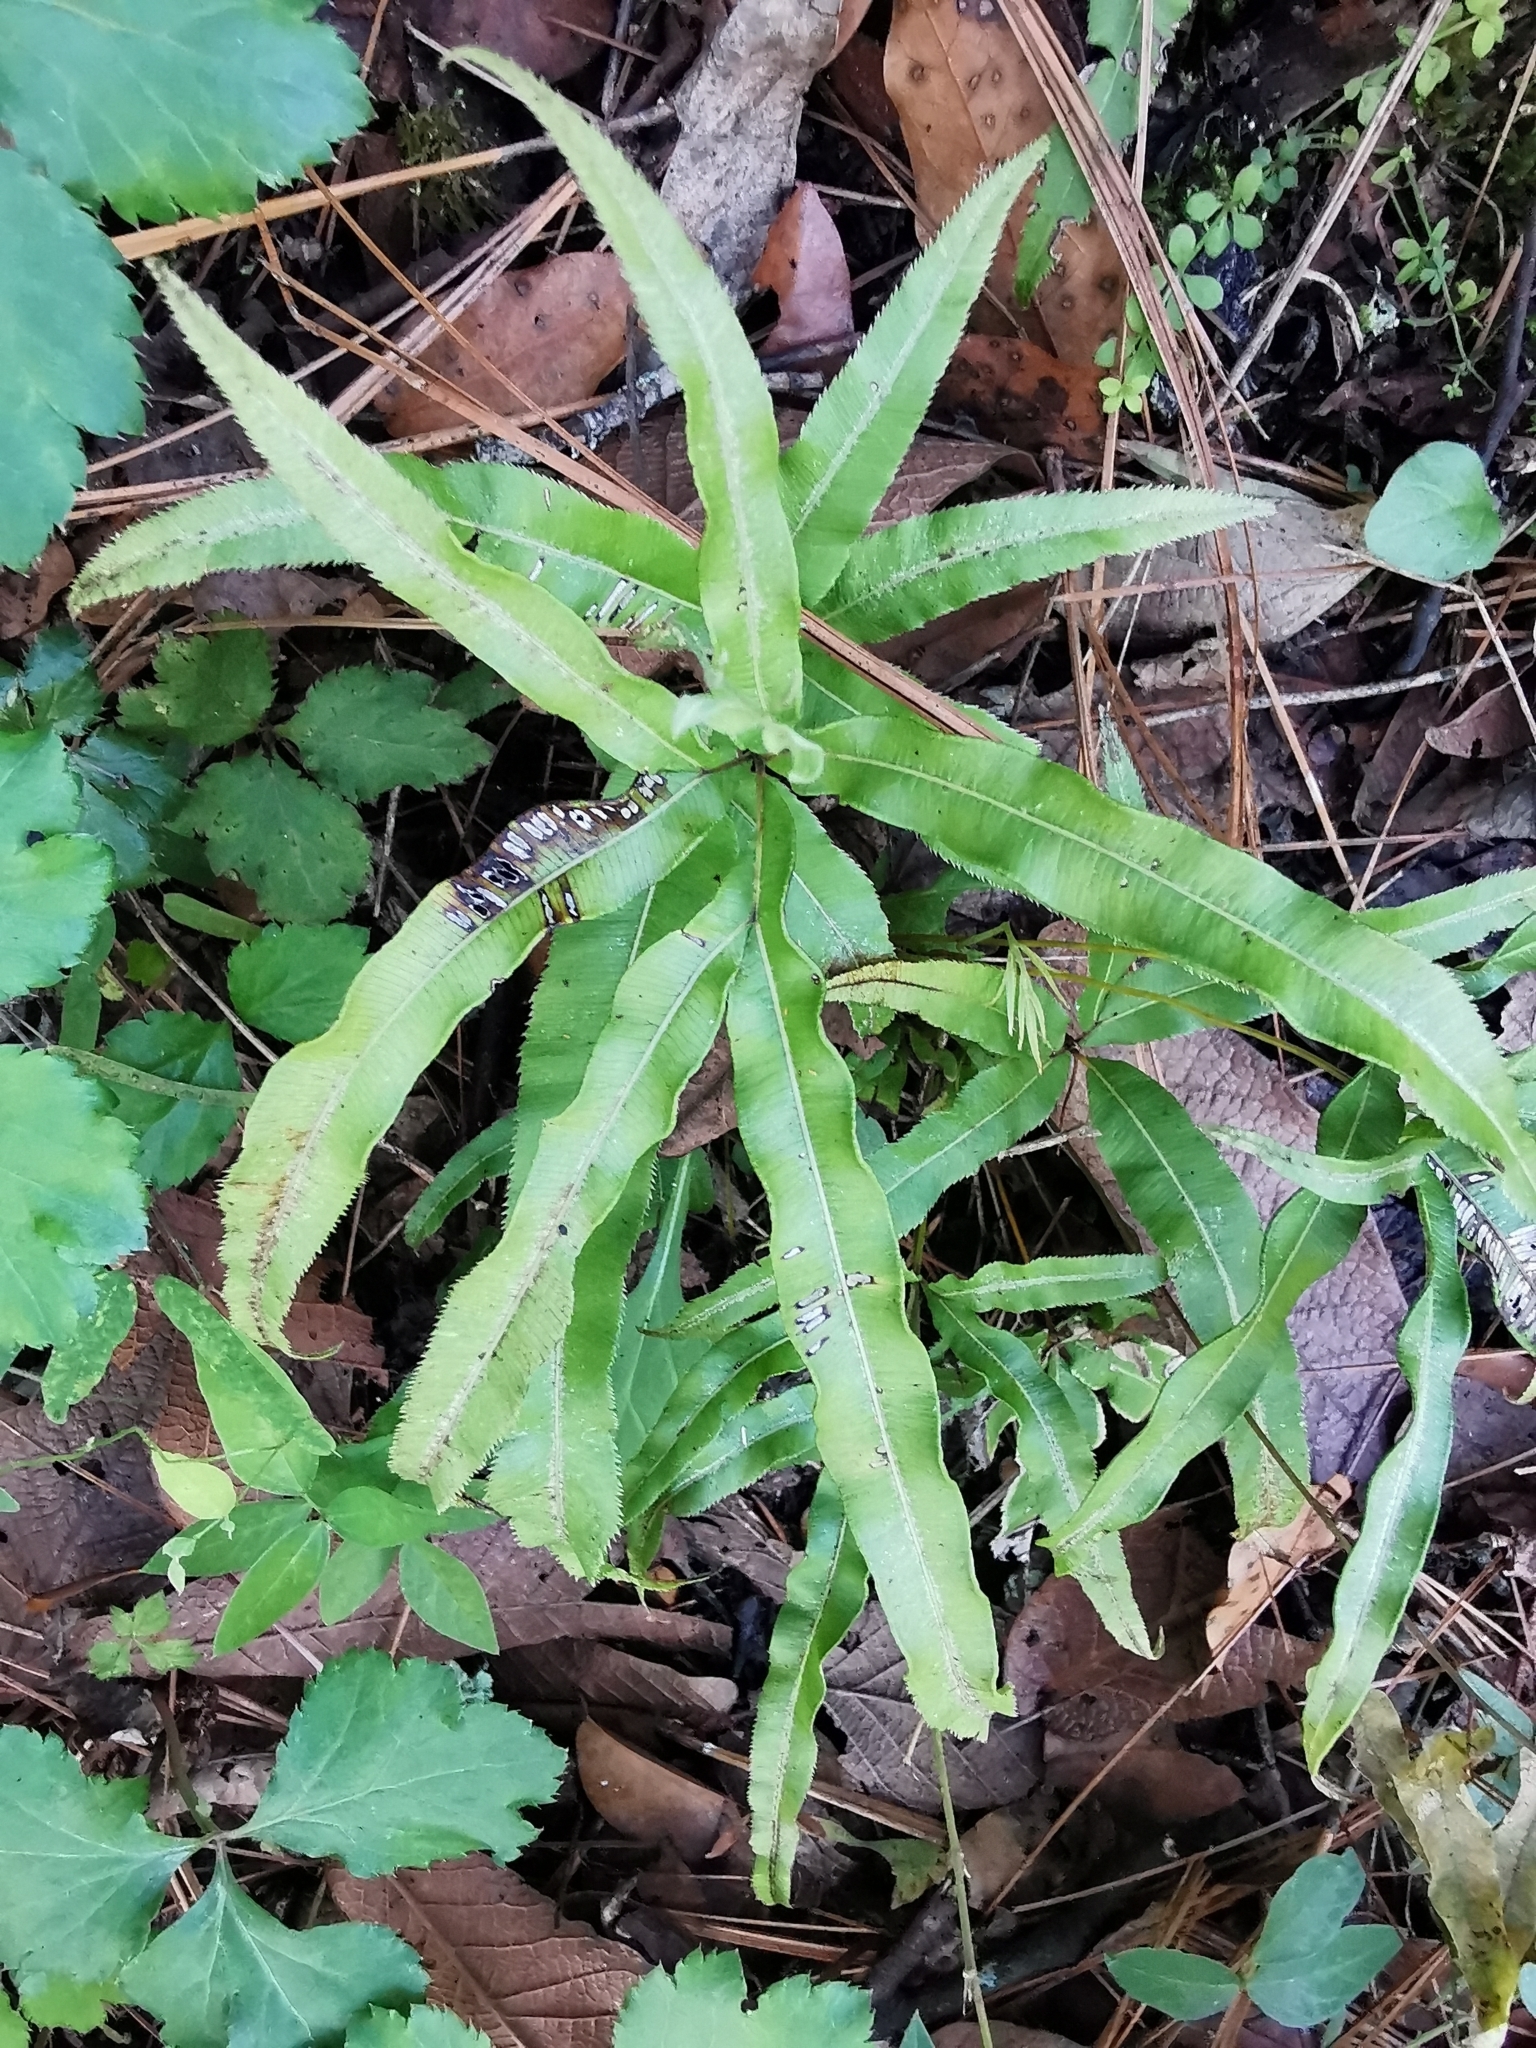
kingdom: Plantae
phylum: Tracheophyta
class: Polypodiopsida
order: Polypodiales
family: Pteridaceae
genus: Pteris
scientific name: Pteris cretica
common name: Ribbon fern
